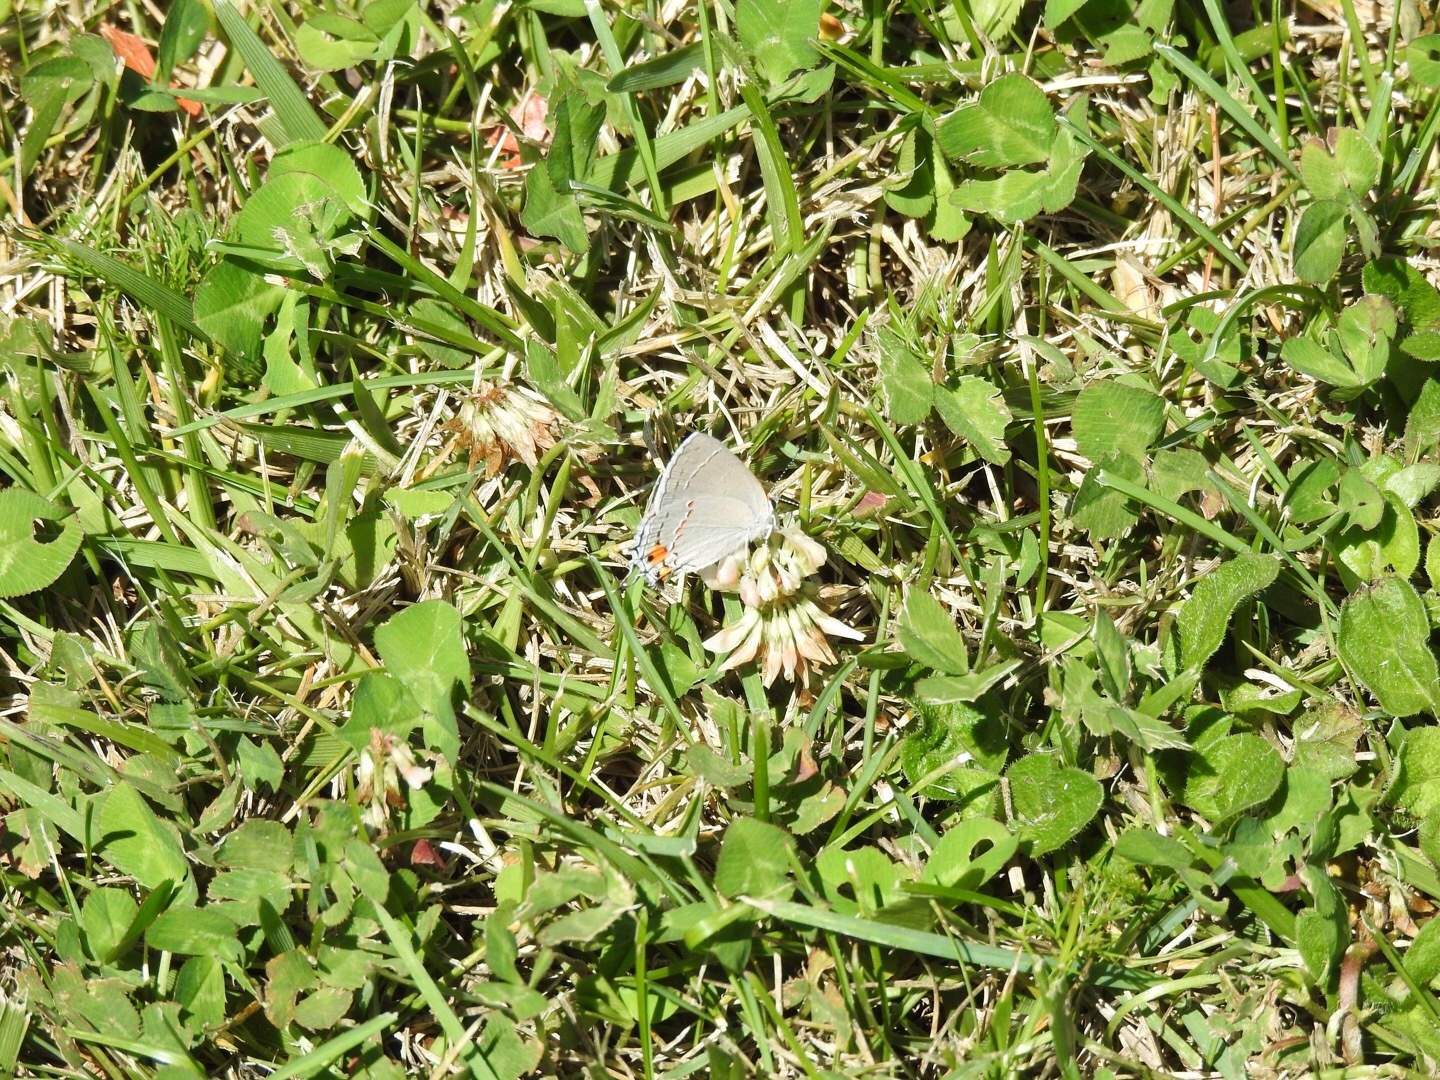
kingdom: Animalia
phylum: Arthropoda
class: Insecta
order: Lepidoptera
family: Lycaenidae
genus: Strymon
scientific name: Strymon melinus
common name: Gray hairstreak
